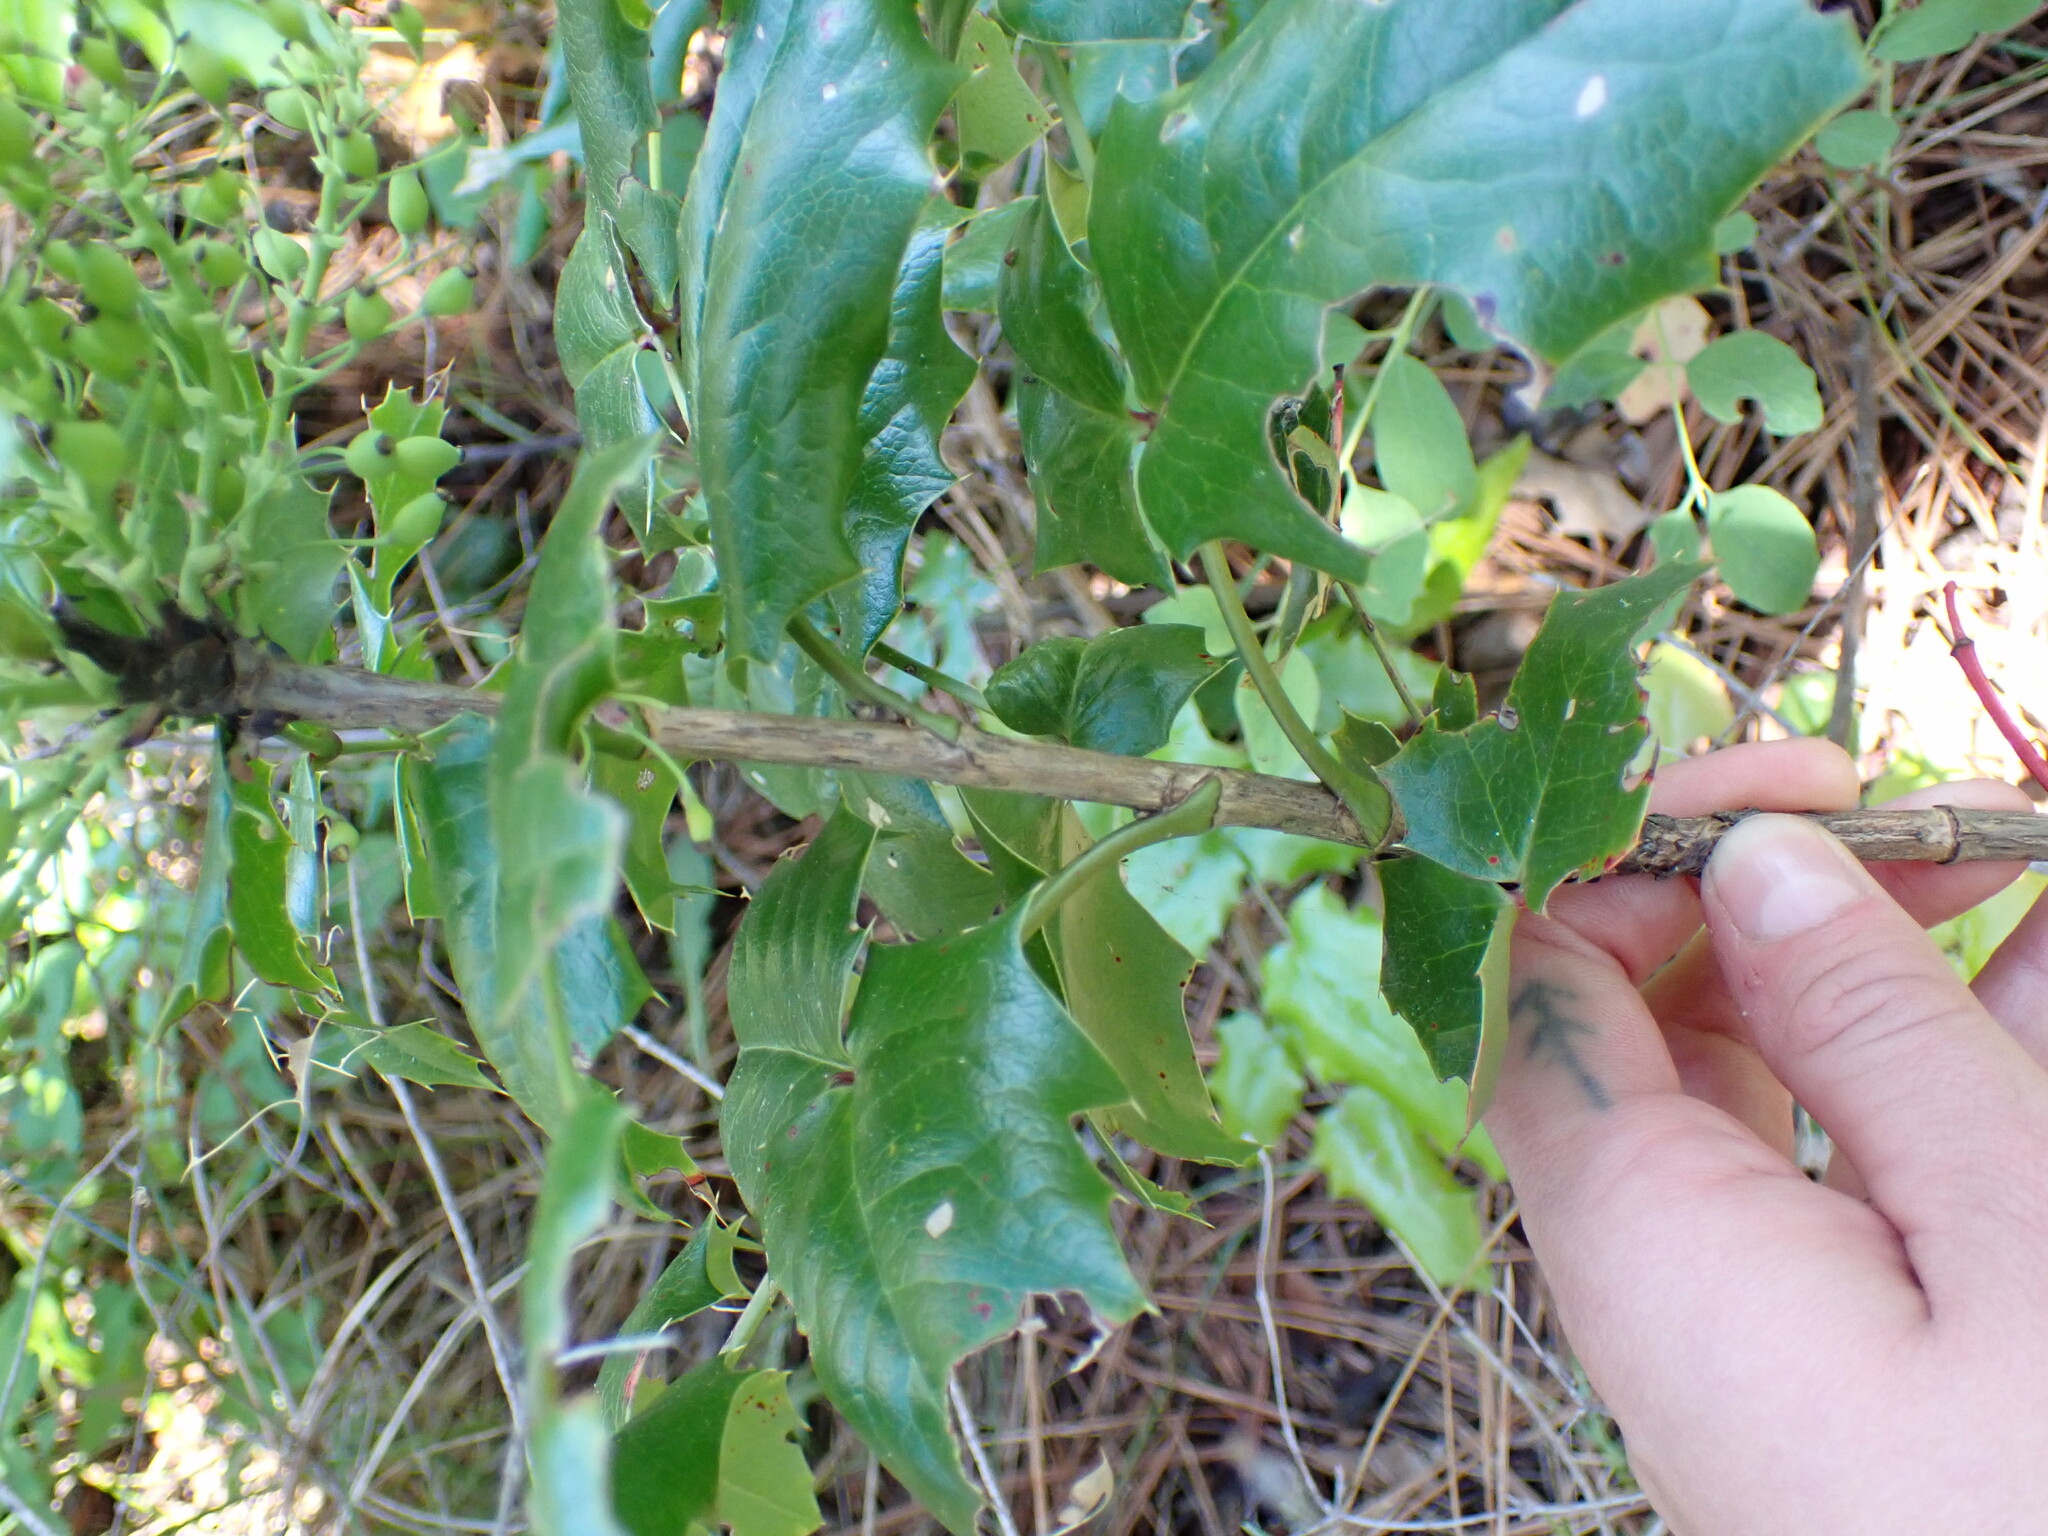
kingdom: Plantae
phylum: Tracheophyta
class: Magnoliopsida
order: Ranunculales
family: Berberidaceae
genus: Mahonia
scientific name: Mahonia aquifolium
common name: Oregon-grape
